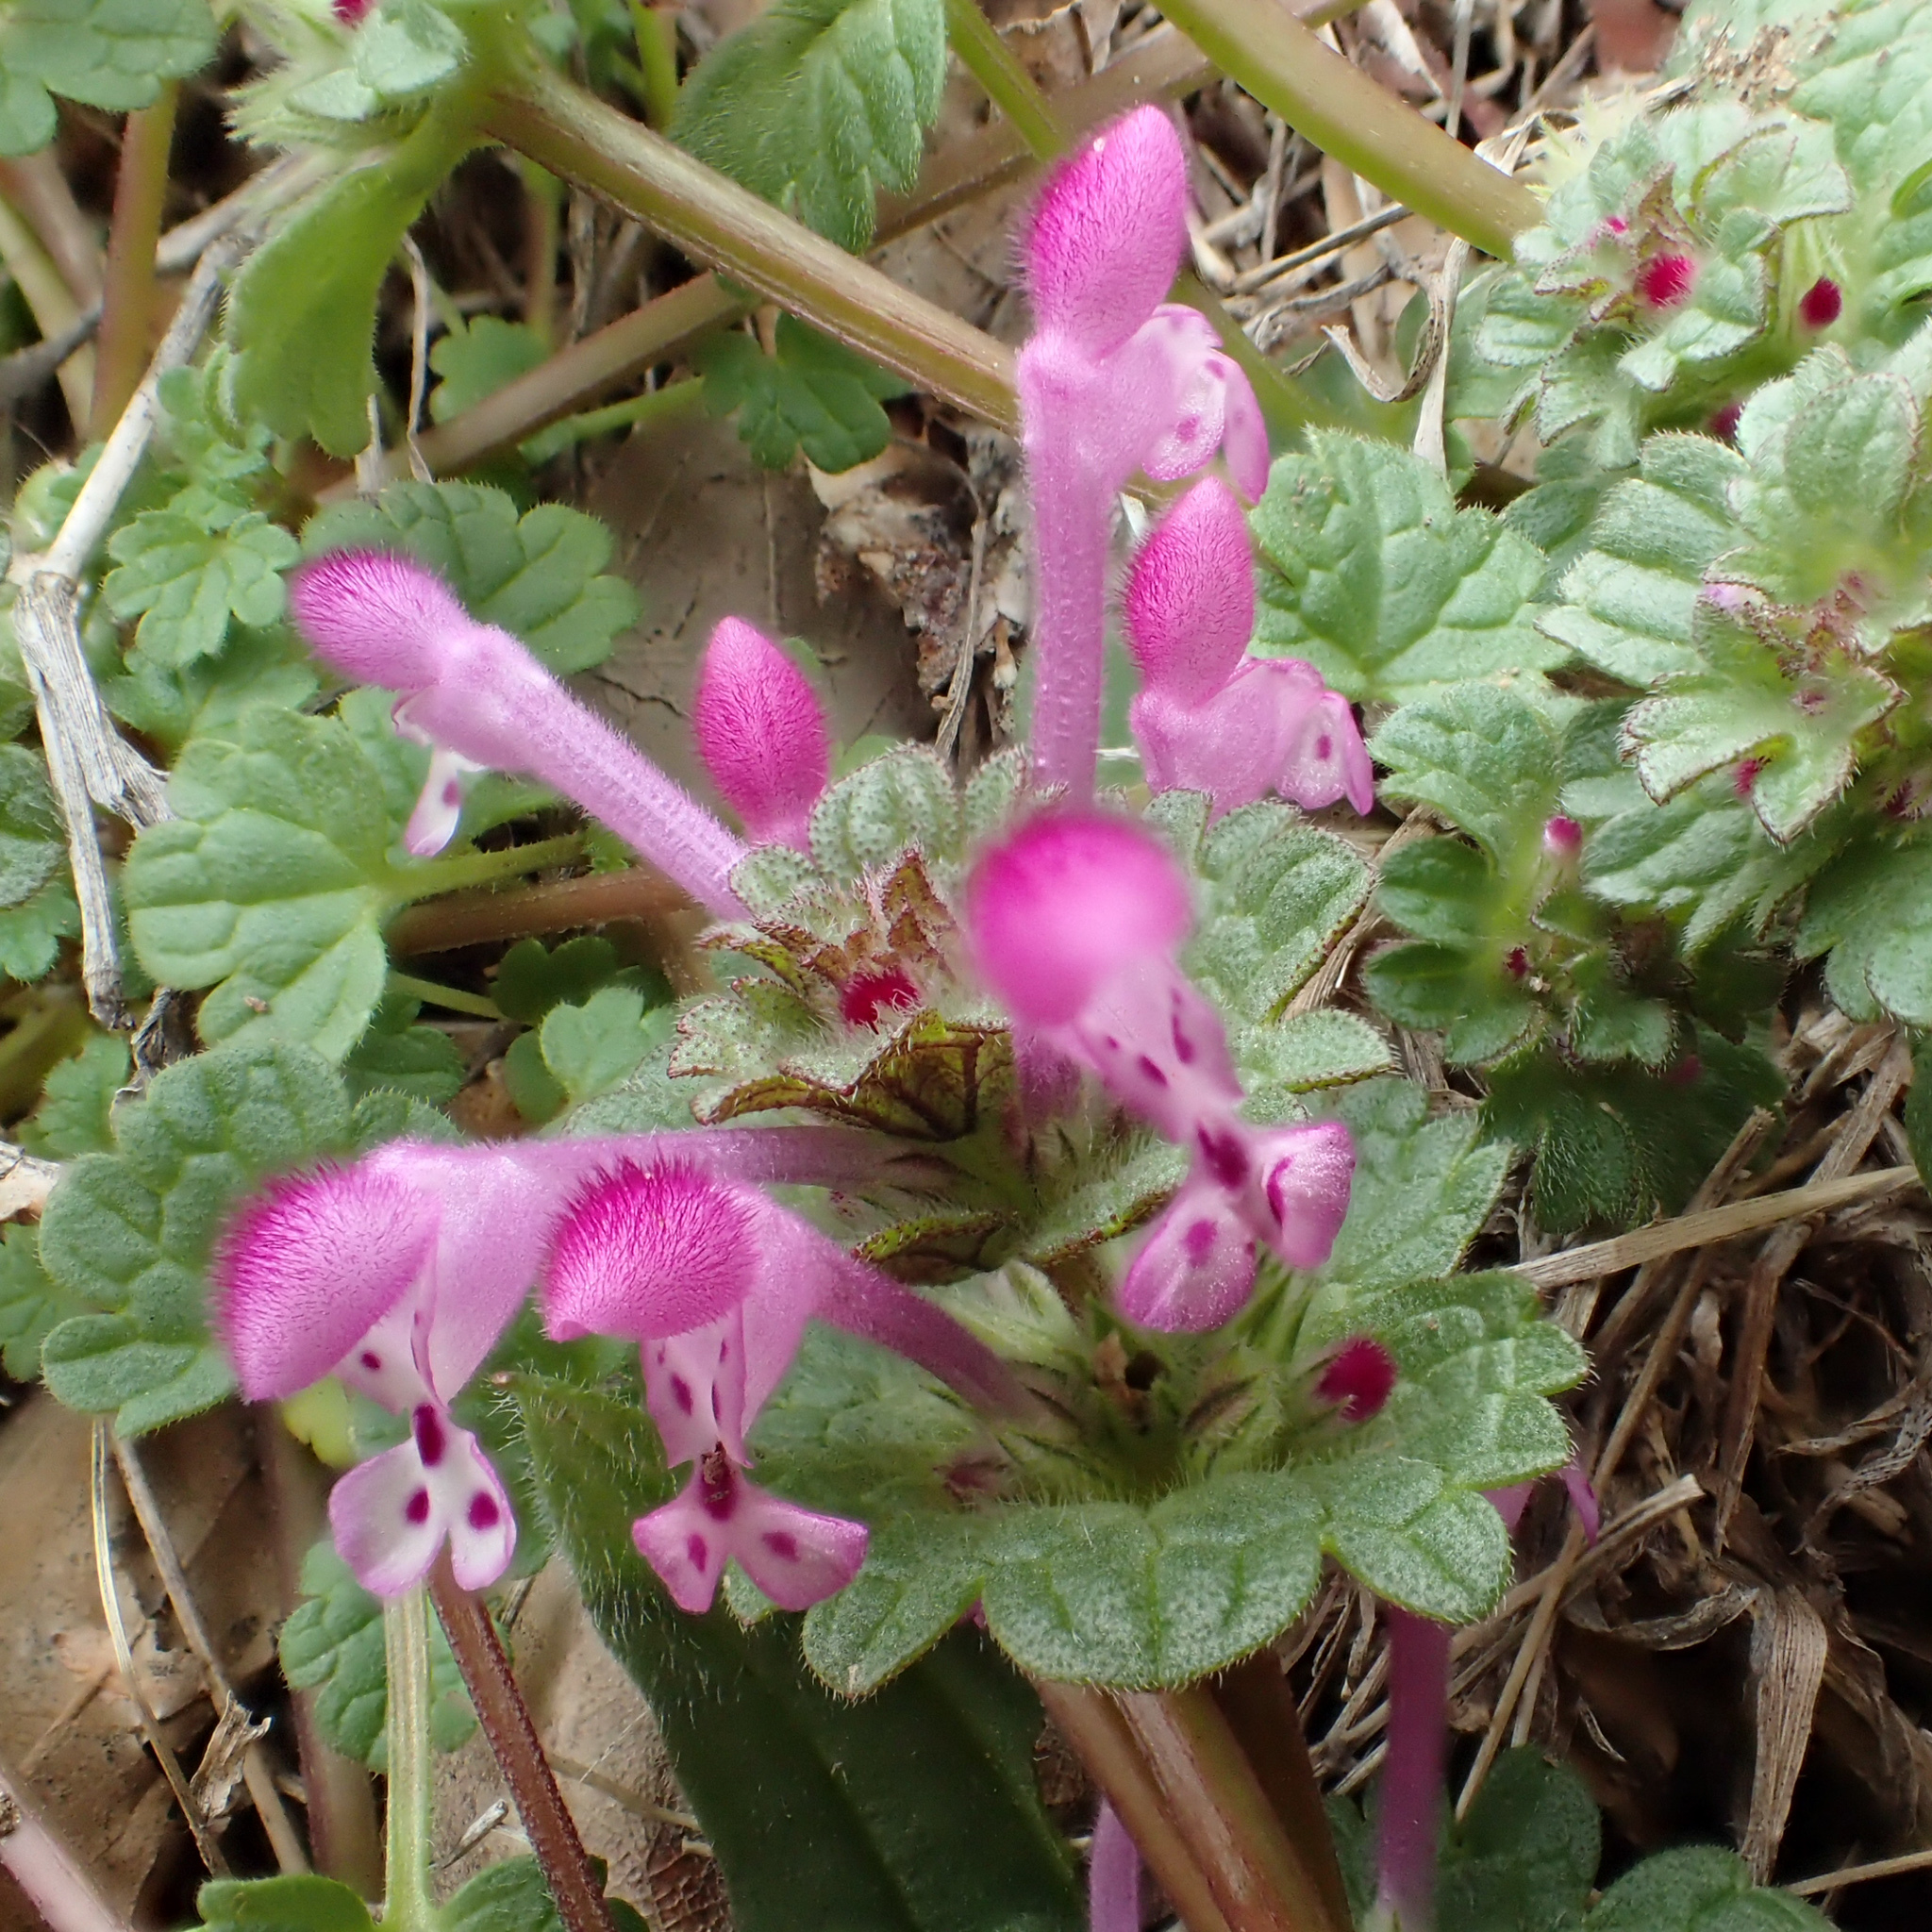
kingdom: Plantae
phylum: Tracheophyta
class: Magnoliopsida
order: Lamiales
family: Lamiaceae
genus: Lamium
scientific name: Lamium amplexicaule
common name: Henbit dead-nettle
